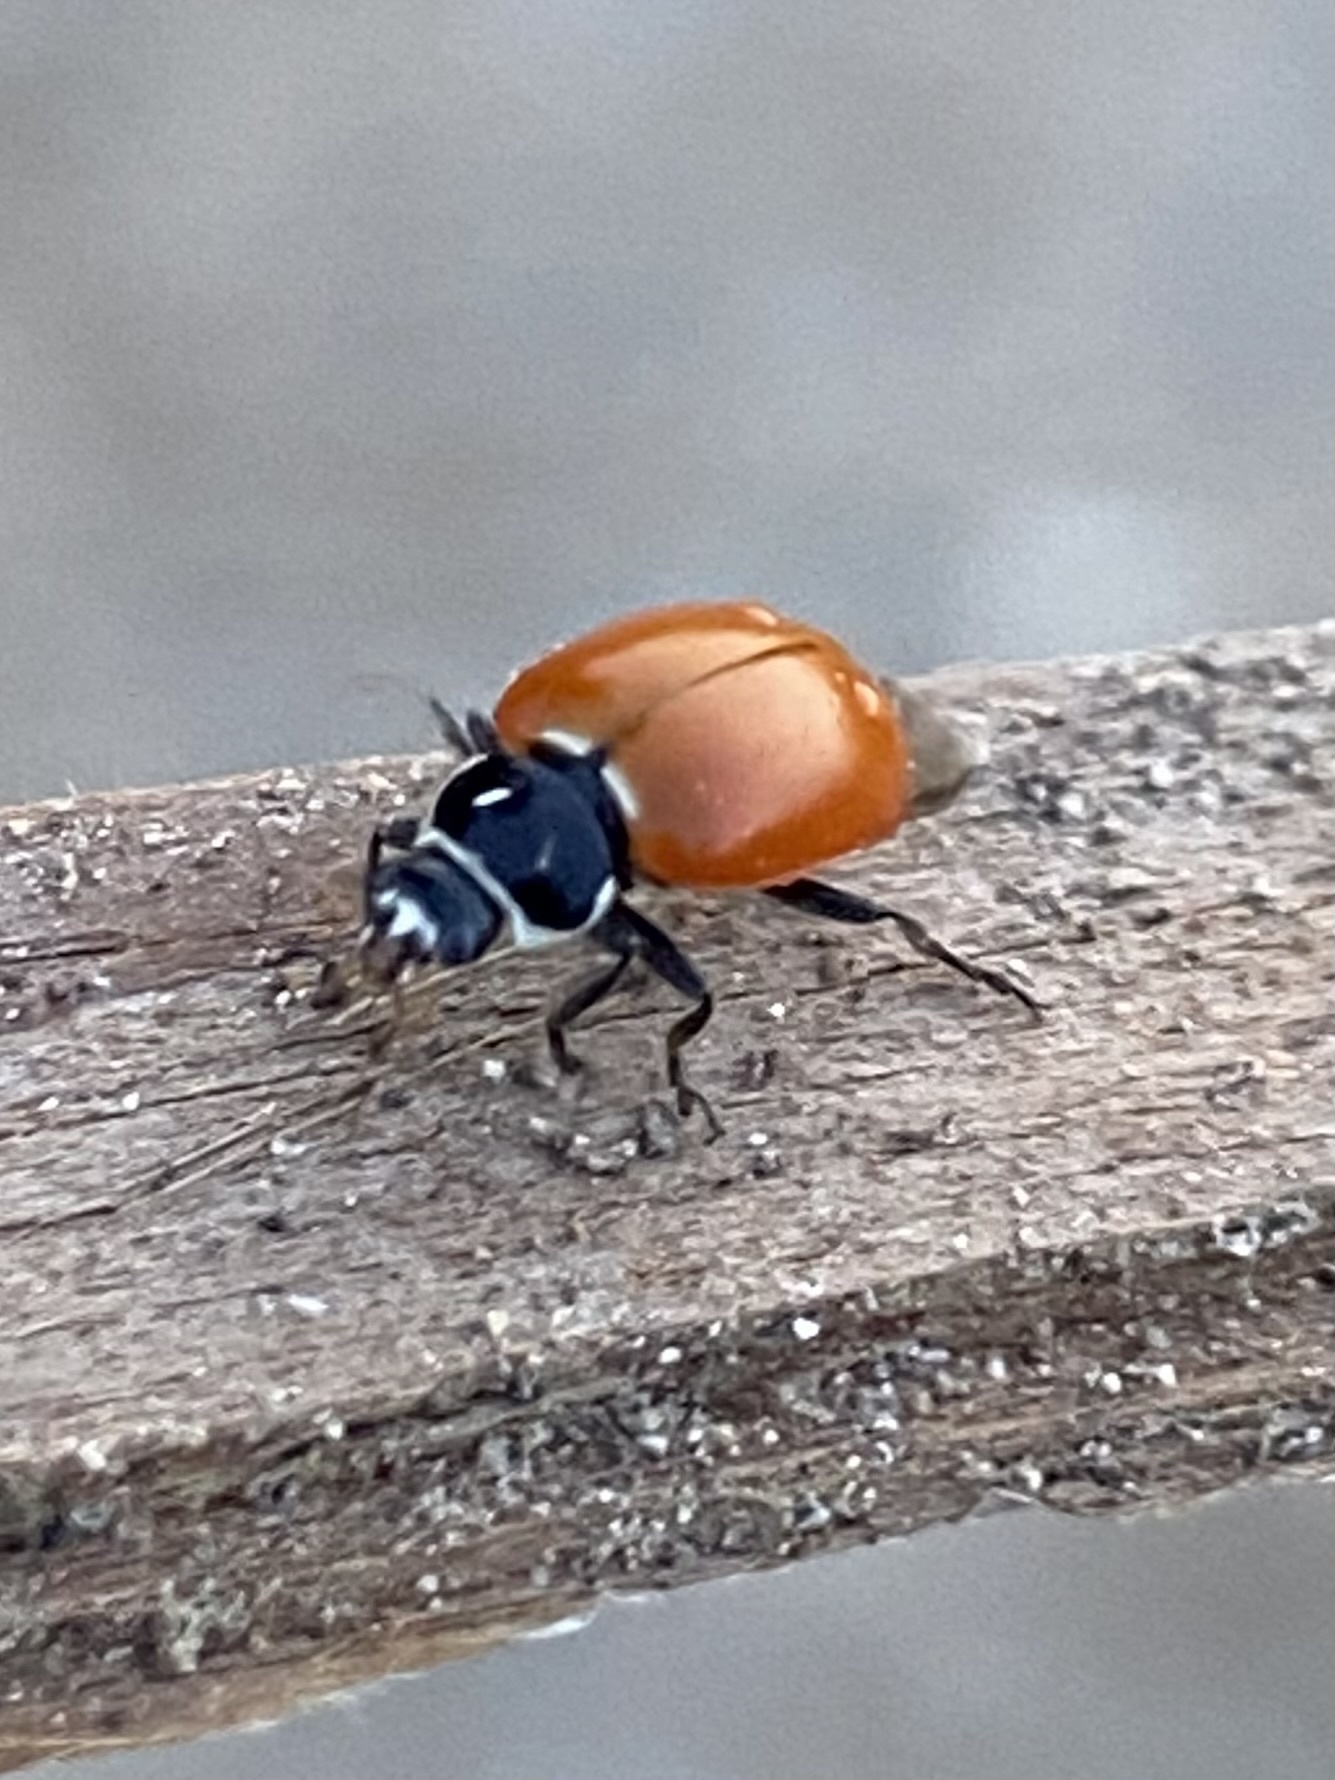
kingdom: Animalia
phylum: Arthropoda
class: Insecta
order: Coleoptera
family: Coccinellidae
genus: Cycloneda
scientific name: Cycloneda sanguinea
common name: Ladybird beetle
